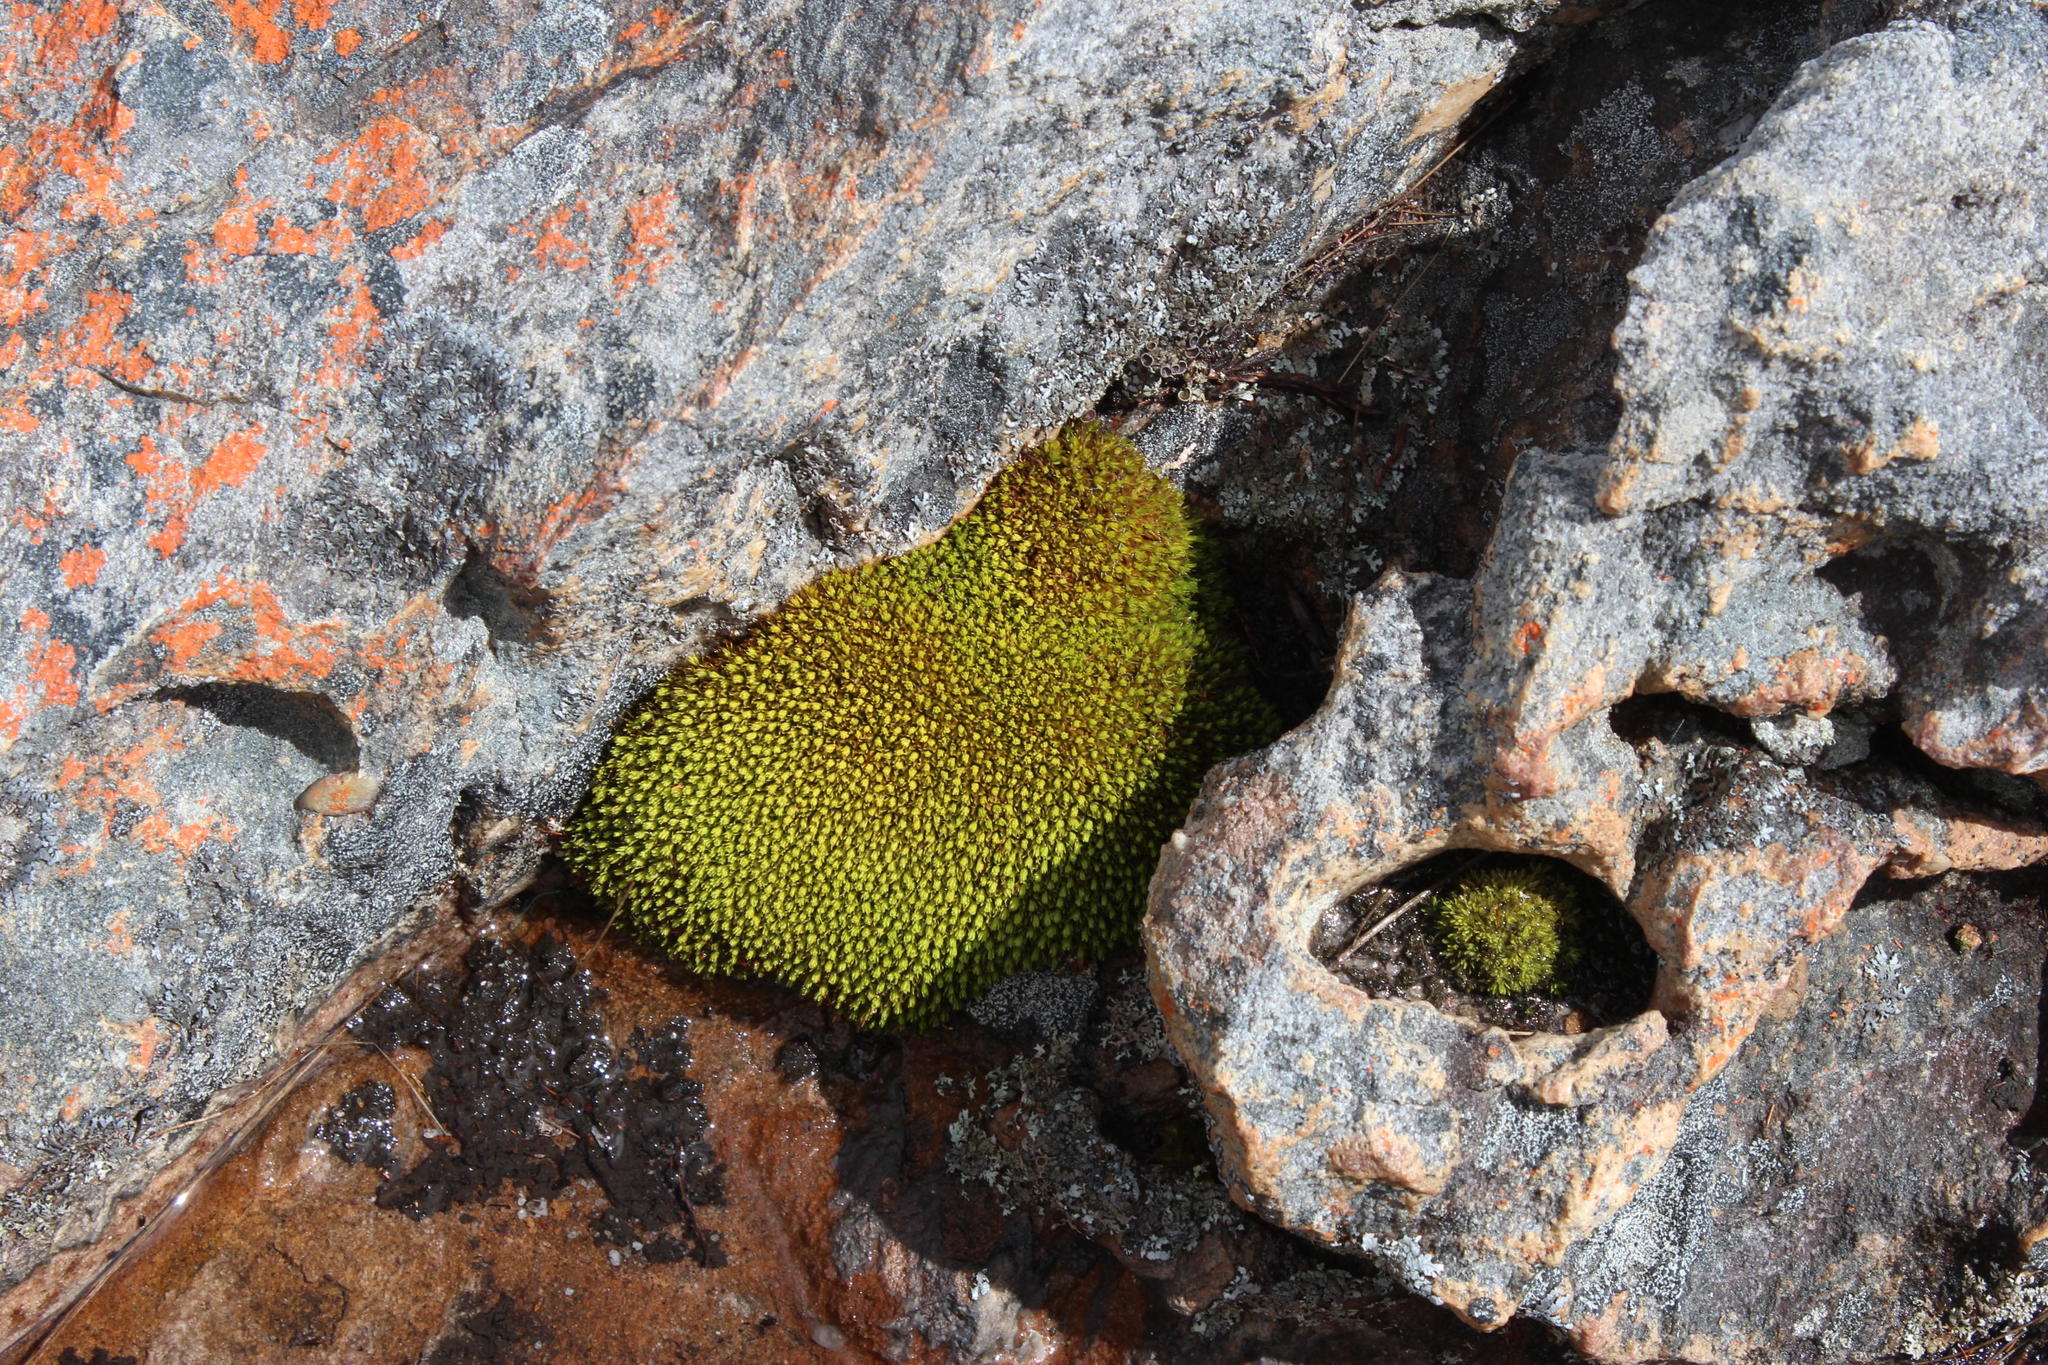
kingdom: Plantae
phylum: Bryophyta
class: Bryopsida
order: Dicranales
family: Hypodontiaceae
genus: Hypodontium
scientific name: Hypodontium pomiforme
